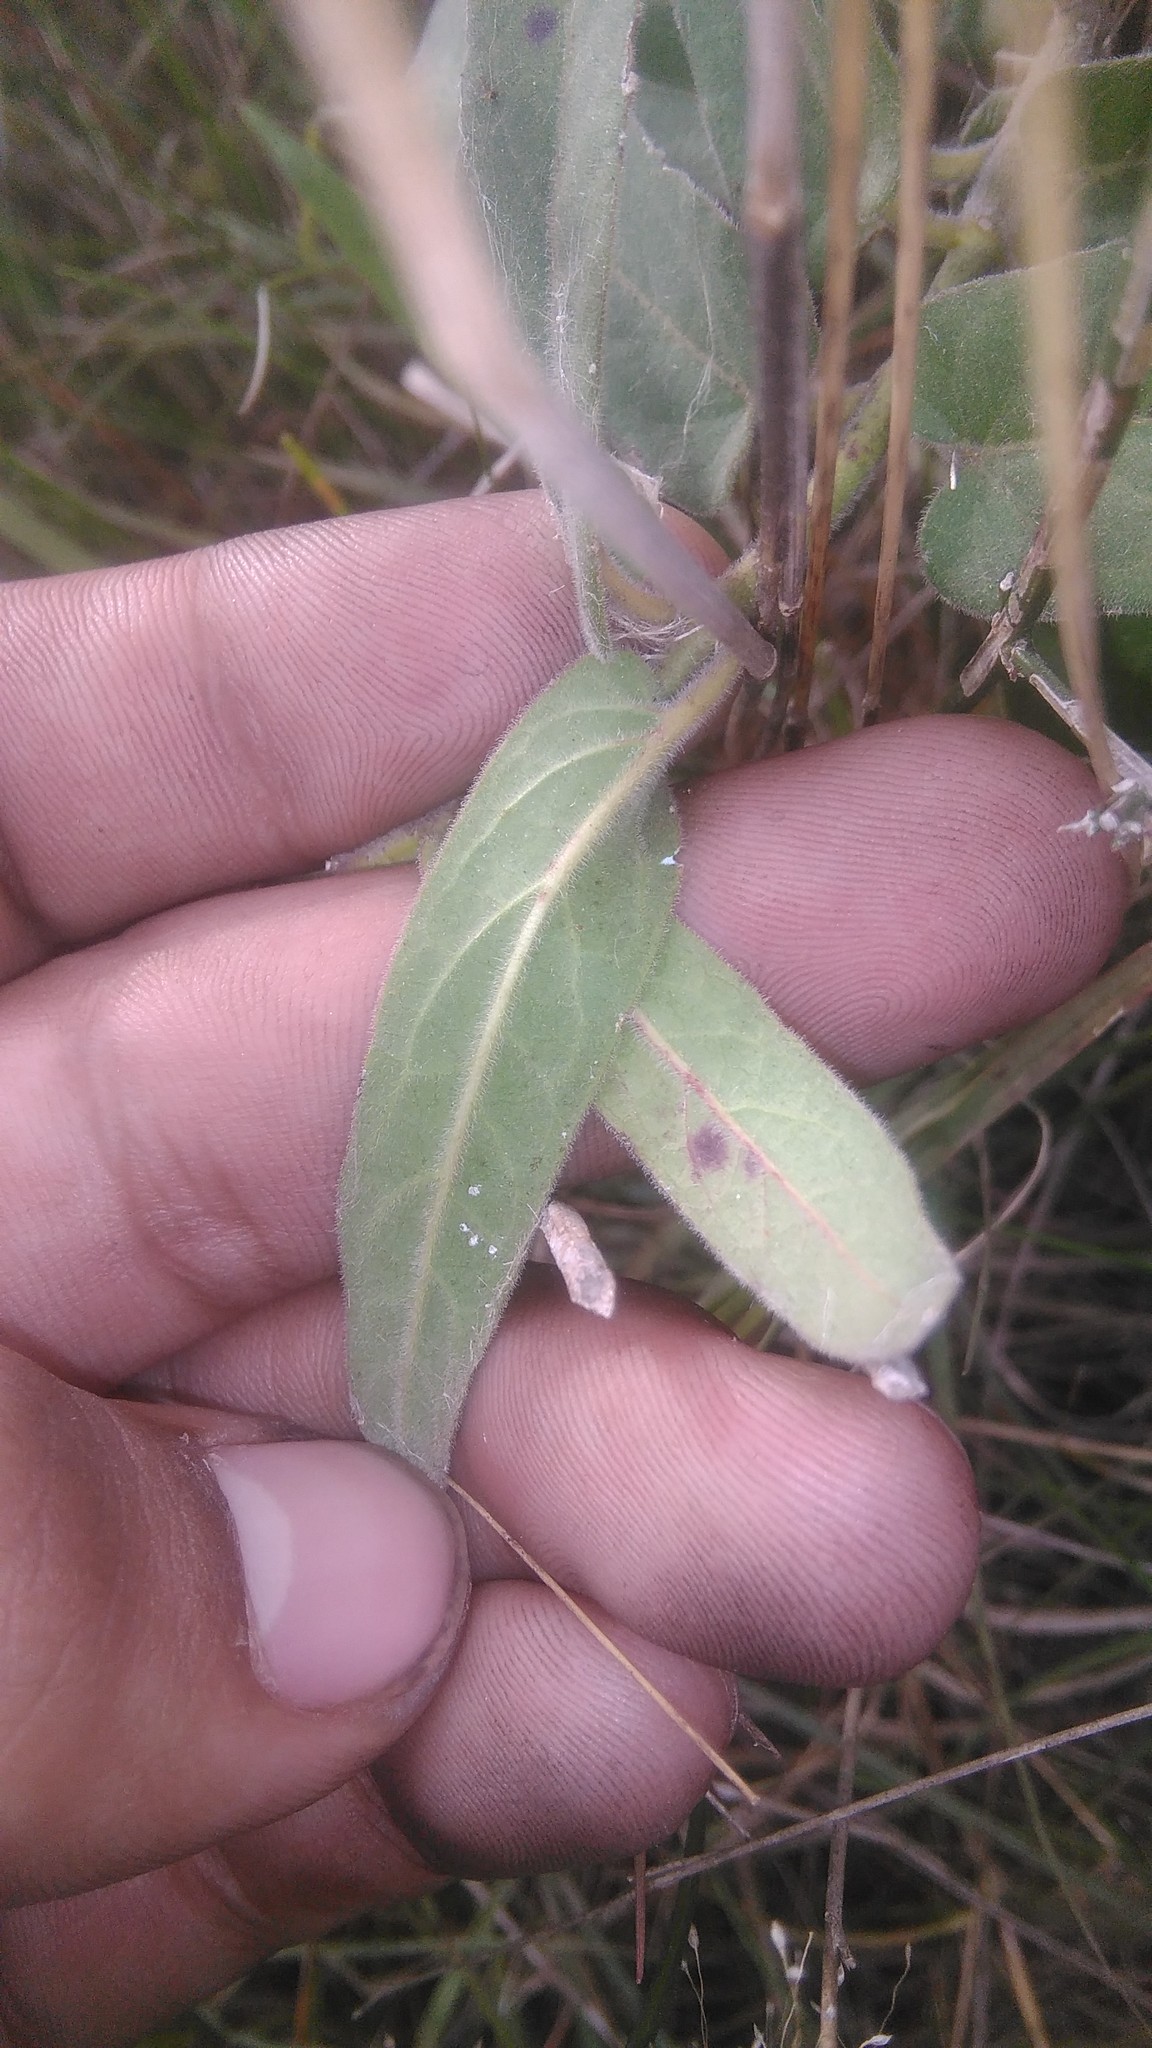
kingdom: Plantae
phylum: Tracheophyta
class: Magnoliopsida
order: Gentianales
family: Apocynaceae
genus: Oxypetalum
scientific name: Oxypetalum solanoides
